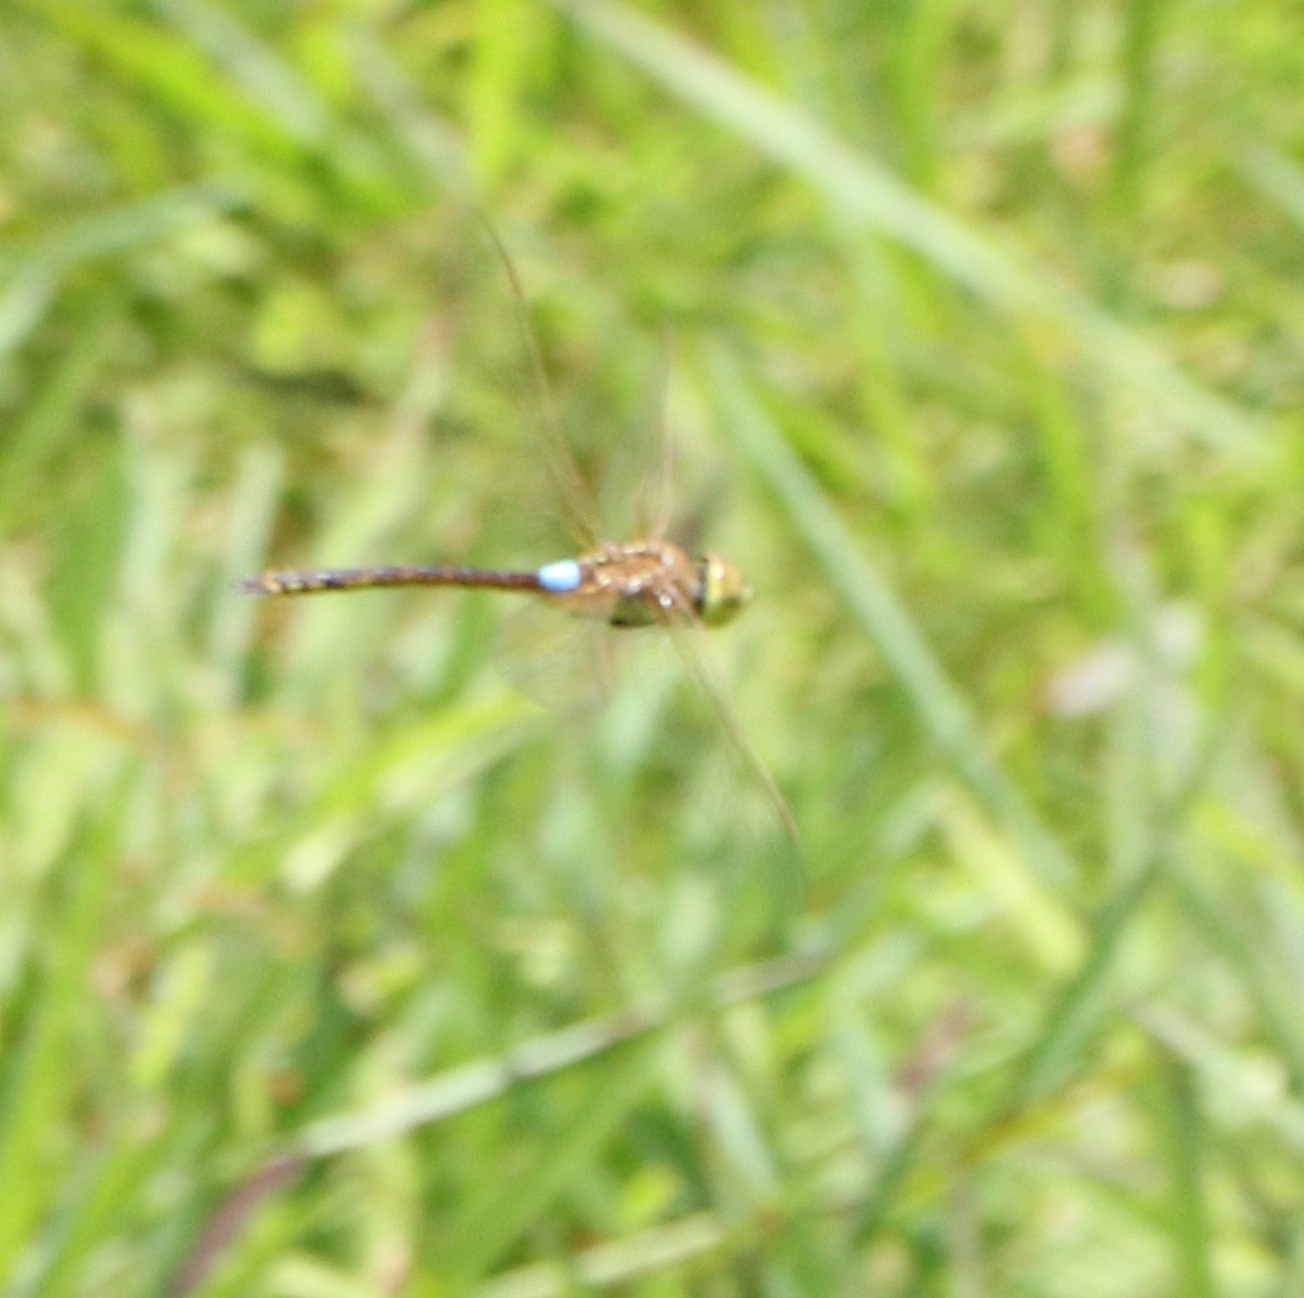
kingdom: Animalia
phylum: Arthropoda
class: Insecta
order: Odonata
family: Aeshnidae
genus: Anax
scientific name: Anax ephippiger
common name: Vagrant emperor
